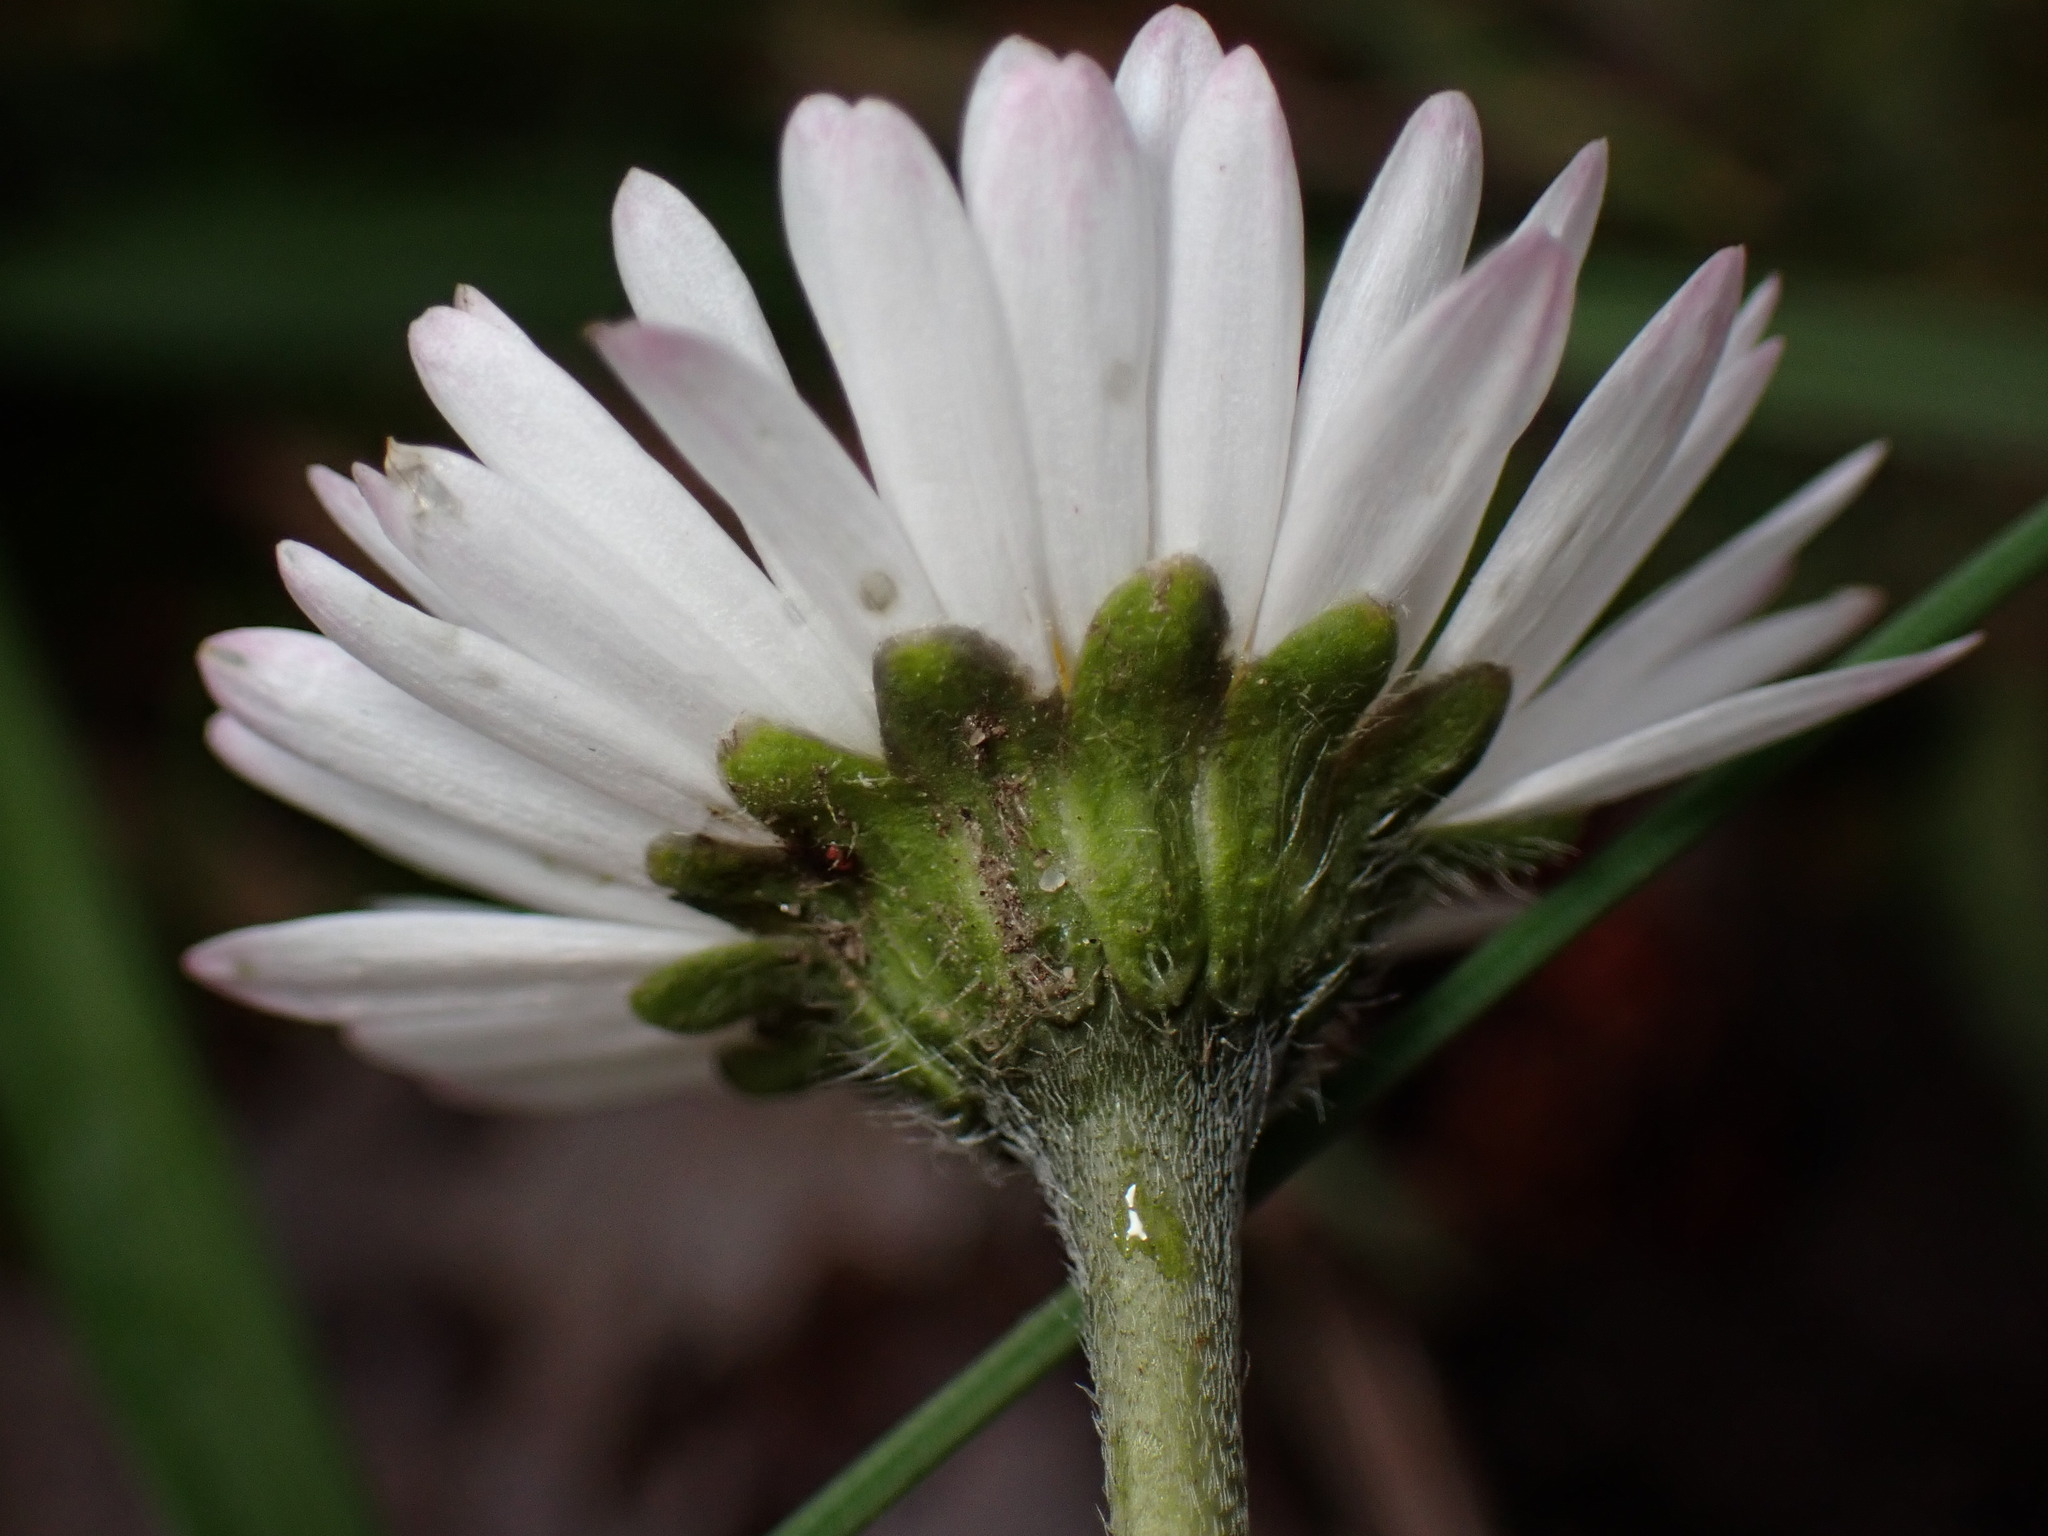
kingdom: Plantae
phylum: Tracheophyta
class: Magnoliopsida
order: Asterales
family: Asteraceae
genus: Bellis
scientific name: Bellis perennis
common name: Lawndaisy
